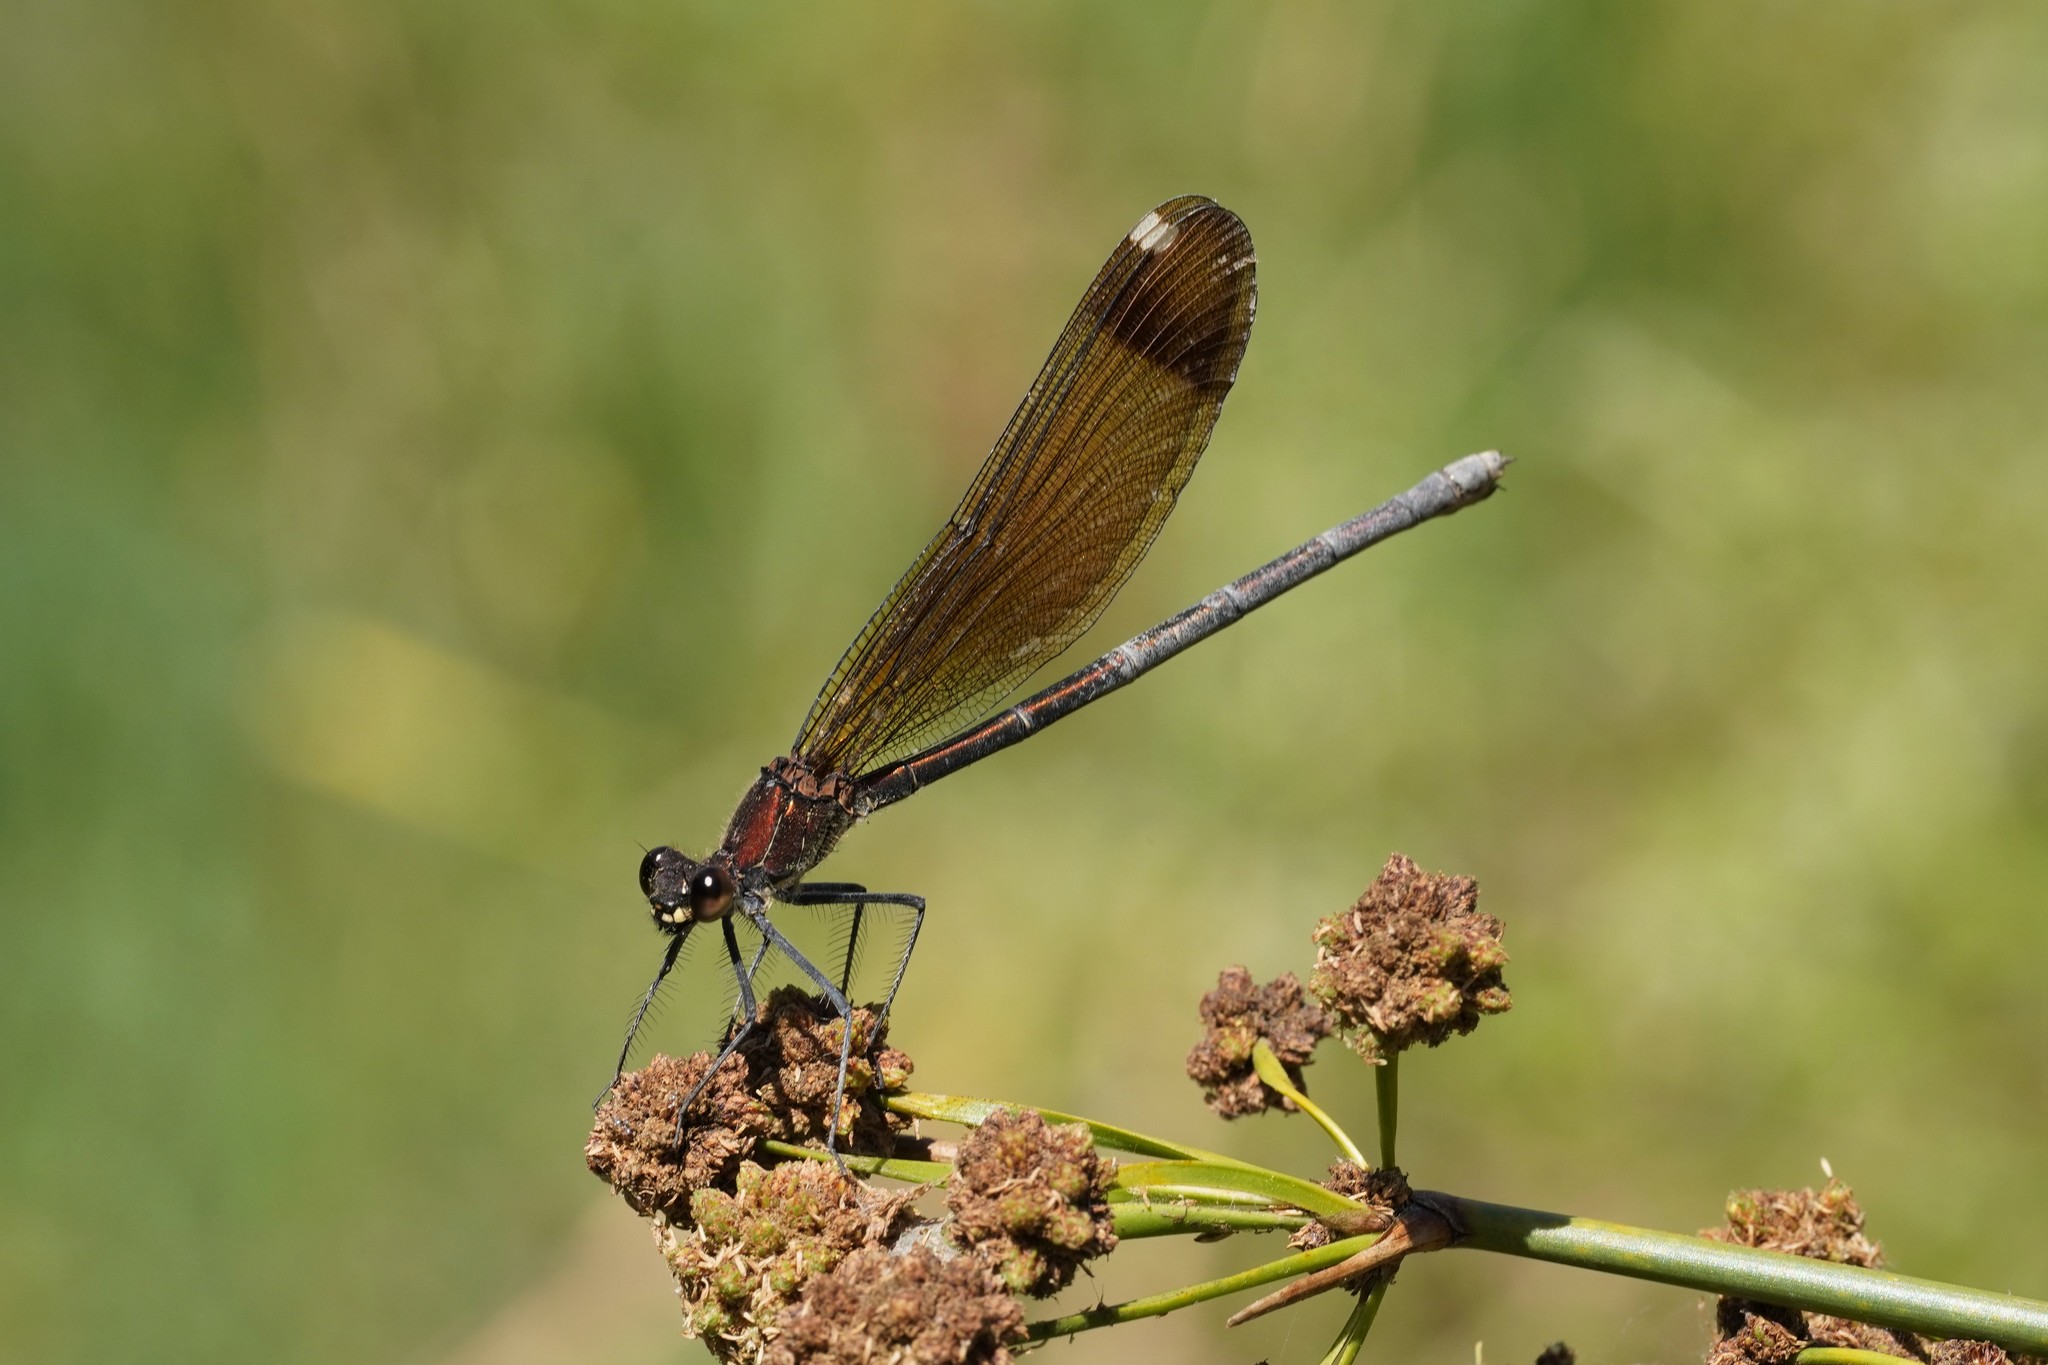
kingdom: Animalia
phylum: Arthropoda
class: Insecta
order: Odonata
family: Calopterygidae
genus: Calopteryx
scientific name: Calopteryx haemorrhoidalis
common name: Copper demoiselle
